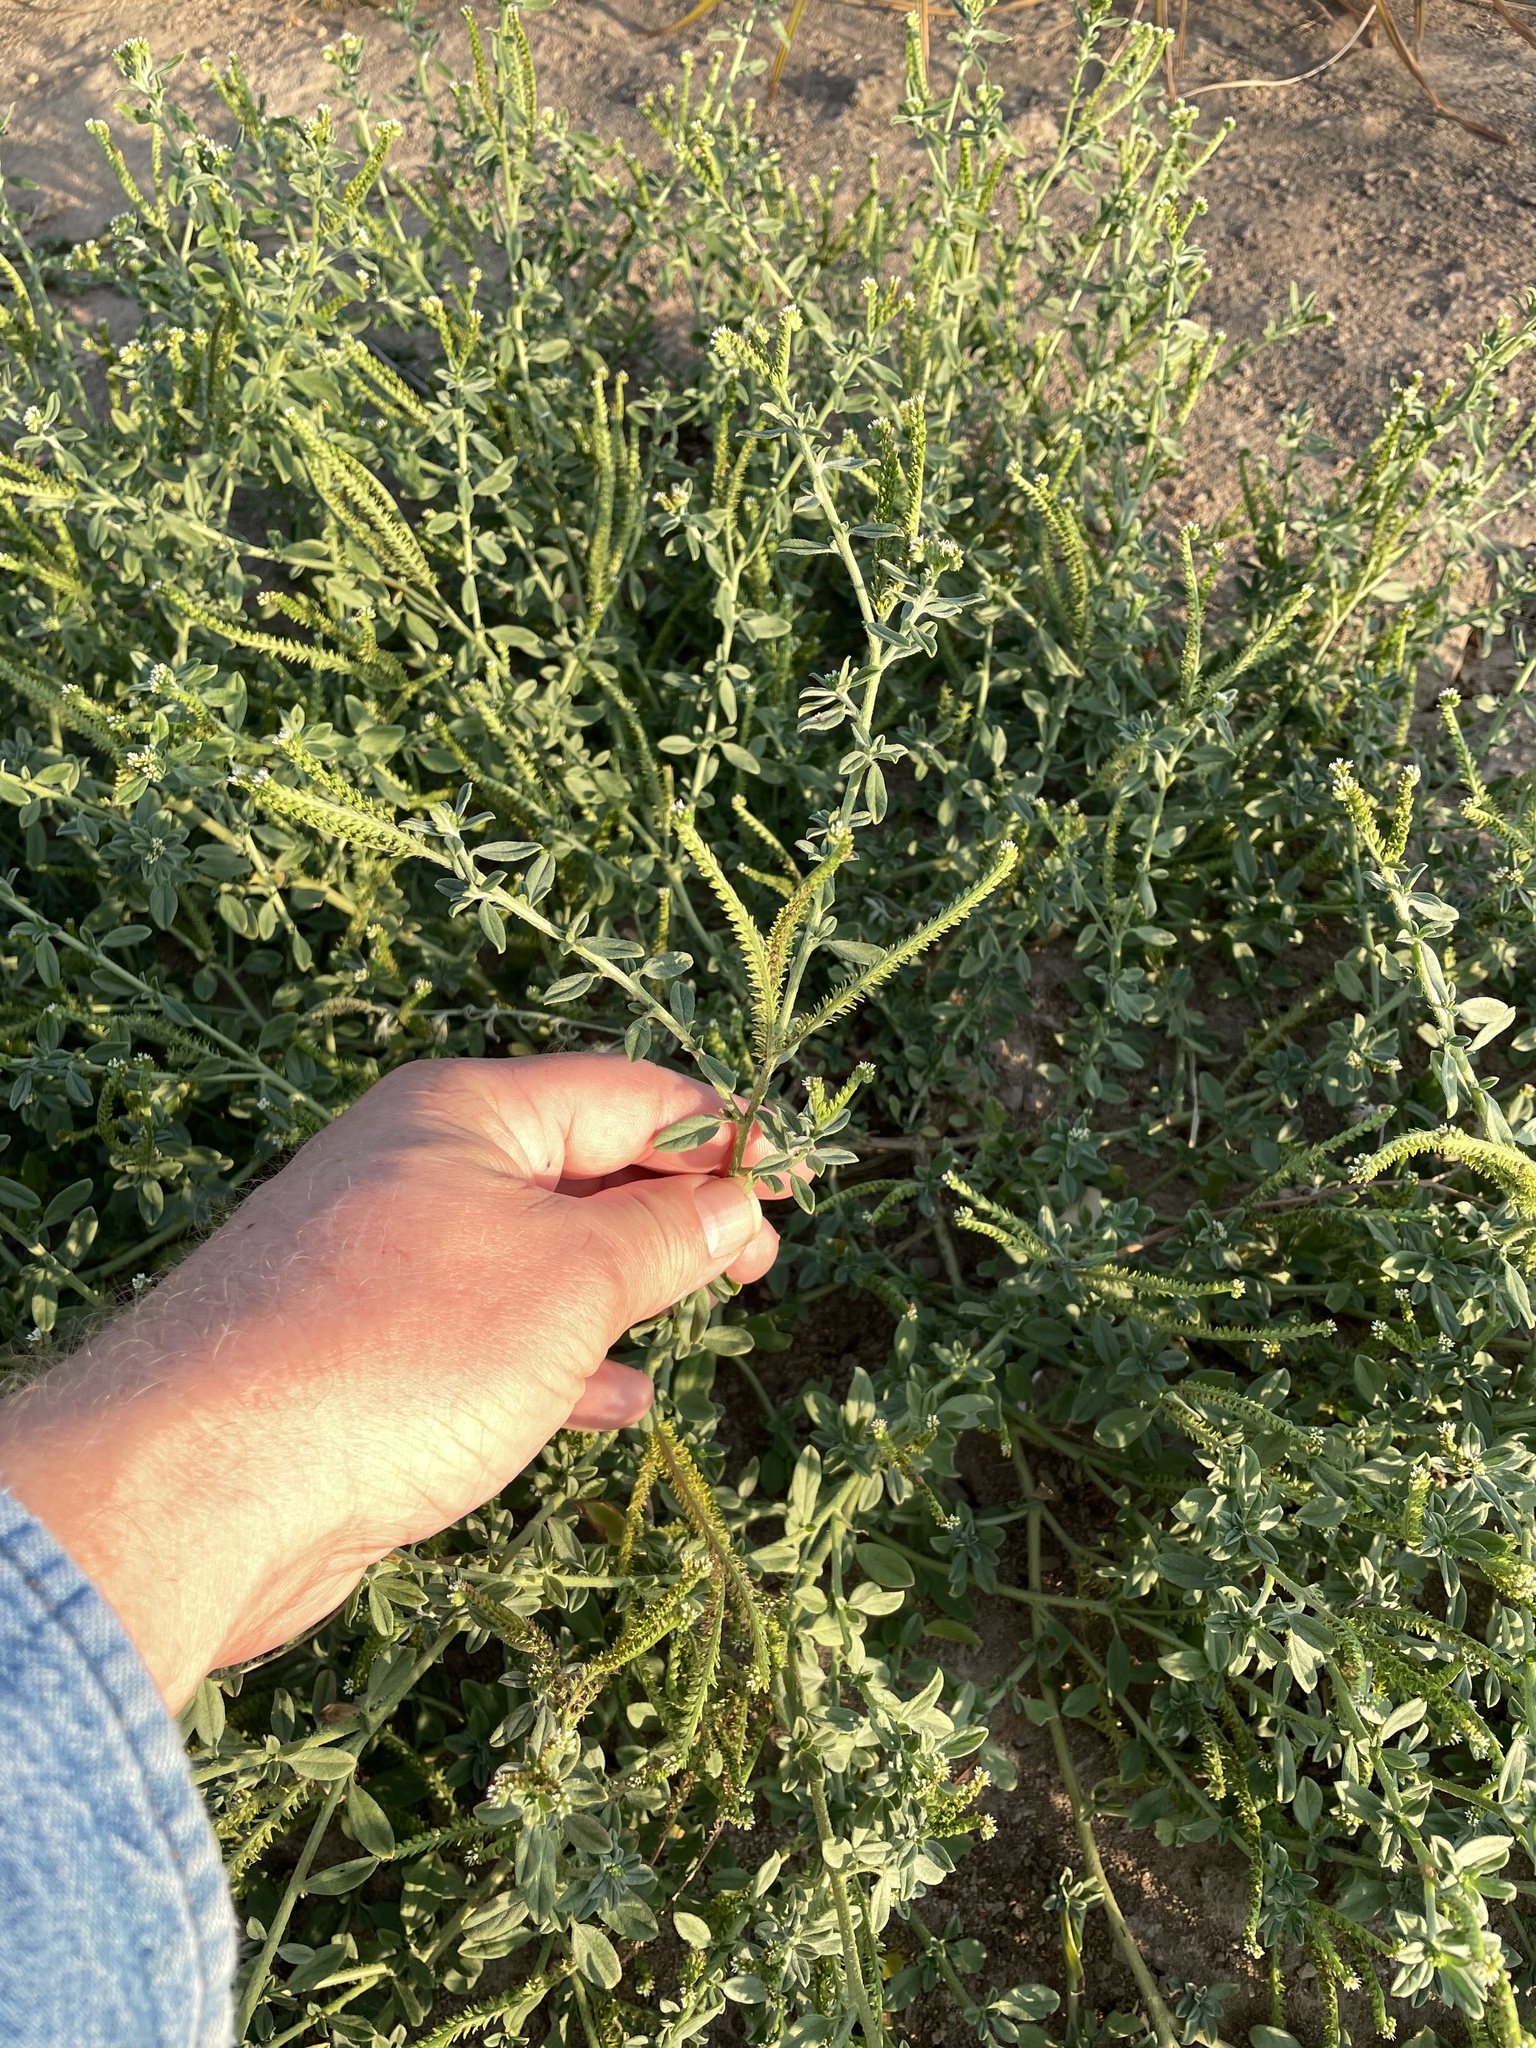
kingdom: Plantae
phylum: Tracheophyta
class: Magnoliopsida
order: Boraginales
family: Heliotropiaceae
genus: Euploca
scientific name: Euploca procumbens
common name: Fourspike heliotrope
